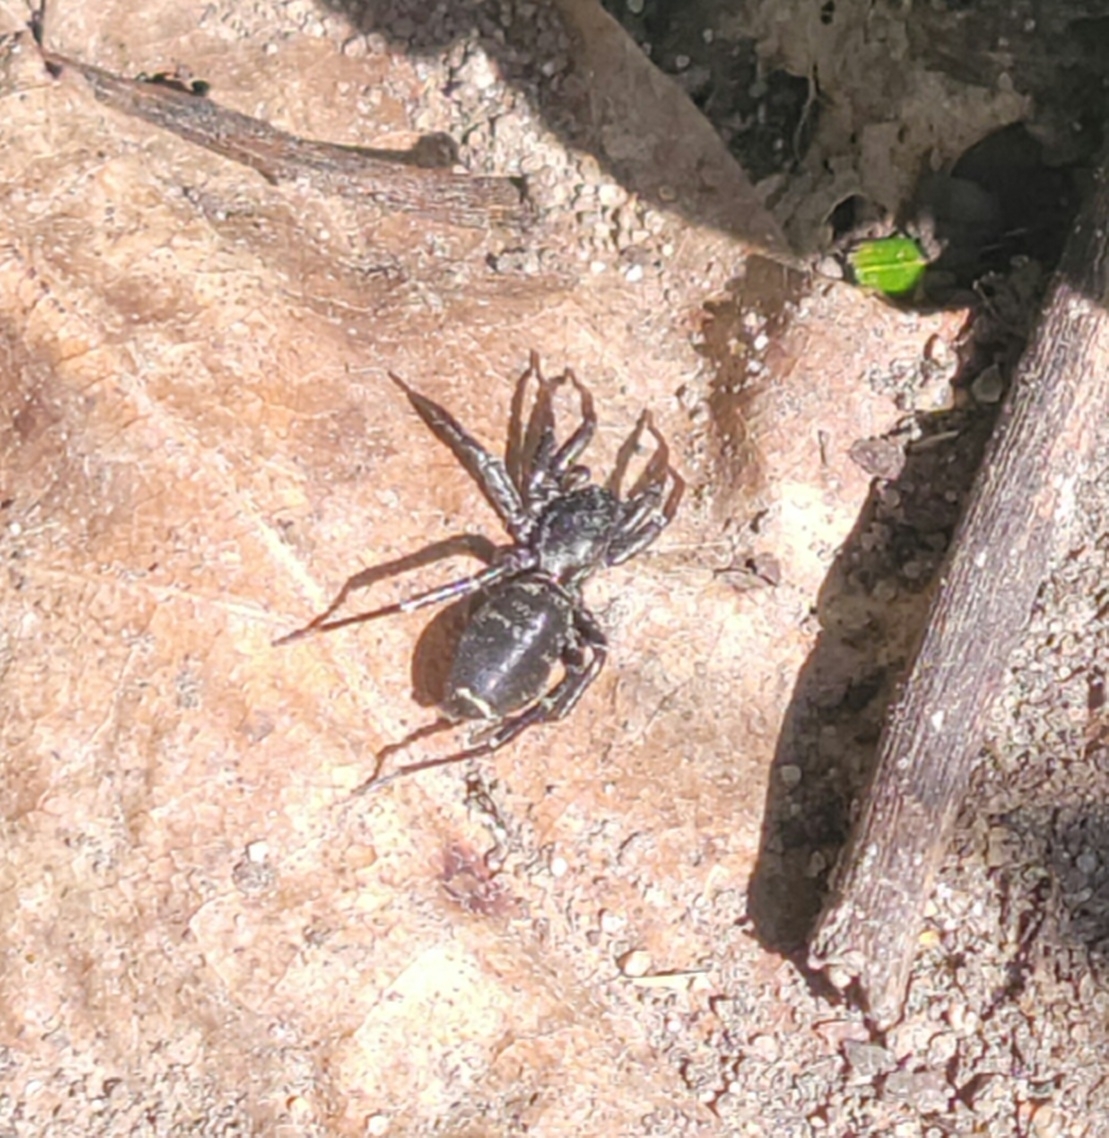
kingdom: Animalia
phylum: Arthropoda
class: Arachnida
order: Araneae
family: Corinnidae
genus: Castianeira
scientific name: Castianeira longipalpa
